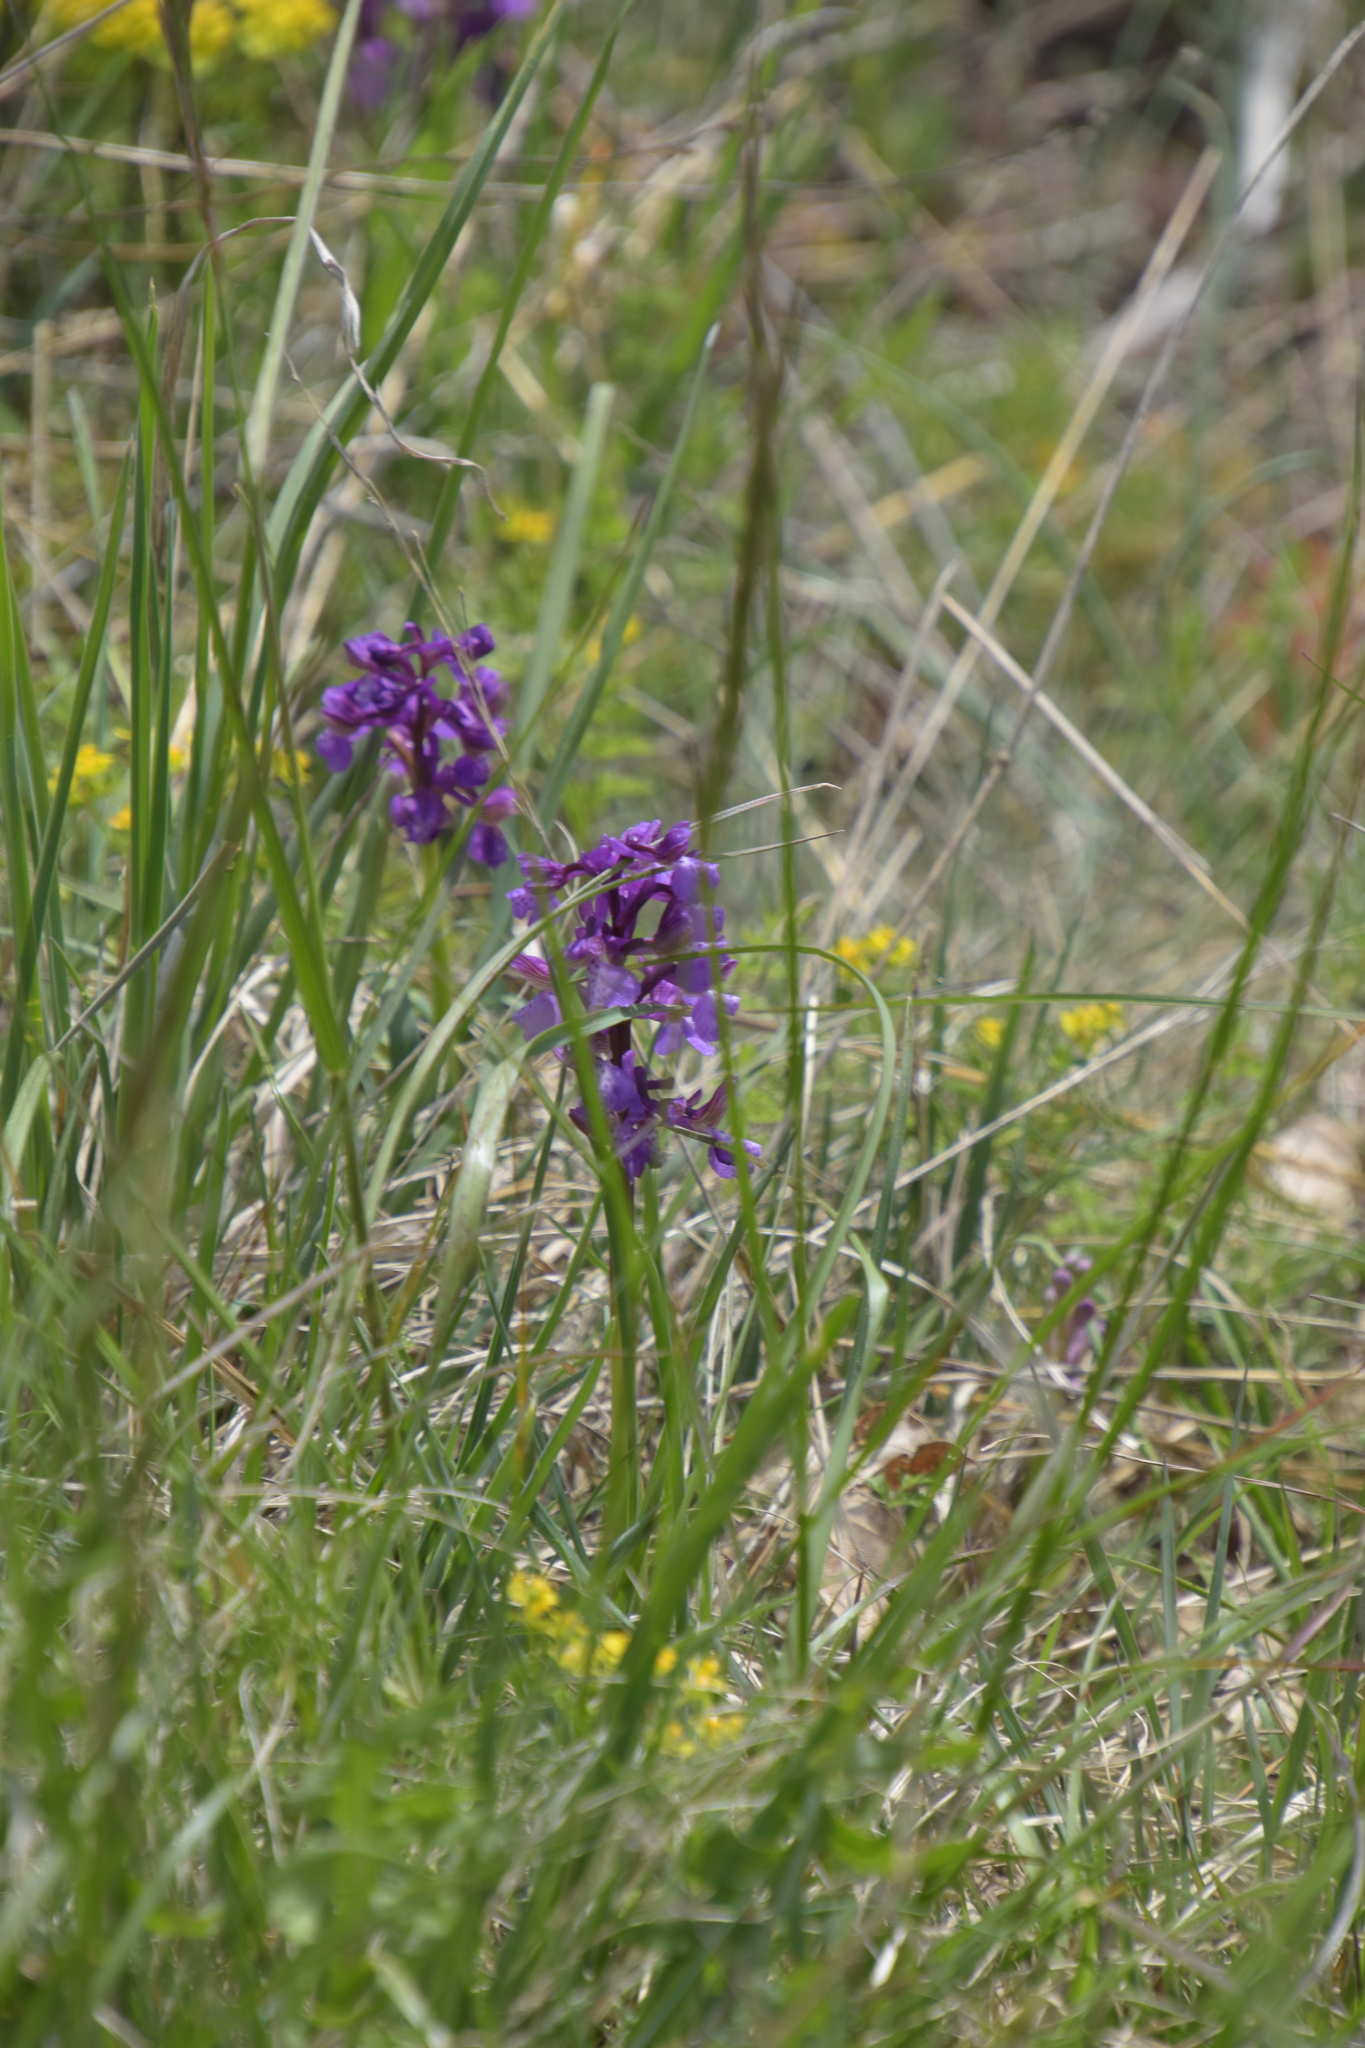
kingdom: Plantae
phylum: Tracheophyta
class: Liliopsida
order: Asparagales
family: Orchidaceae
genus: Anacamptis
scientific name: Anacamptis morio
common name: Green-winged orchid
